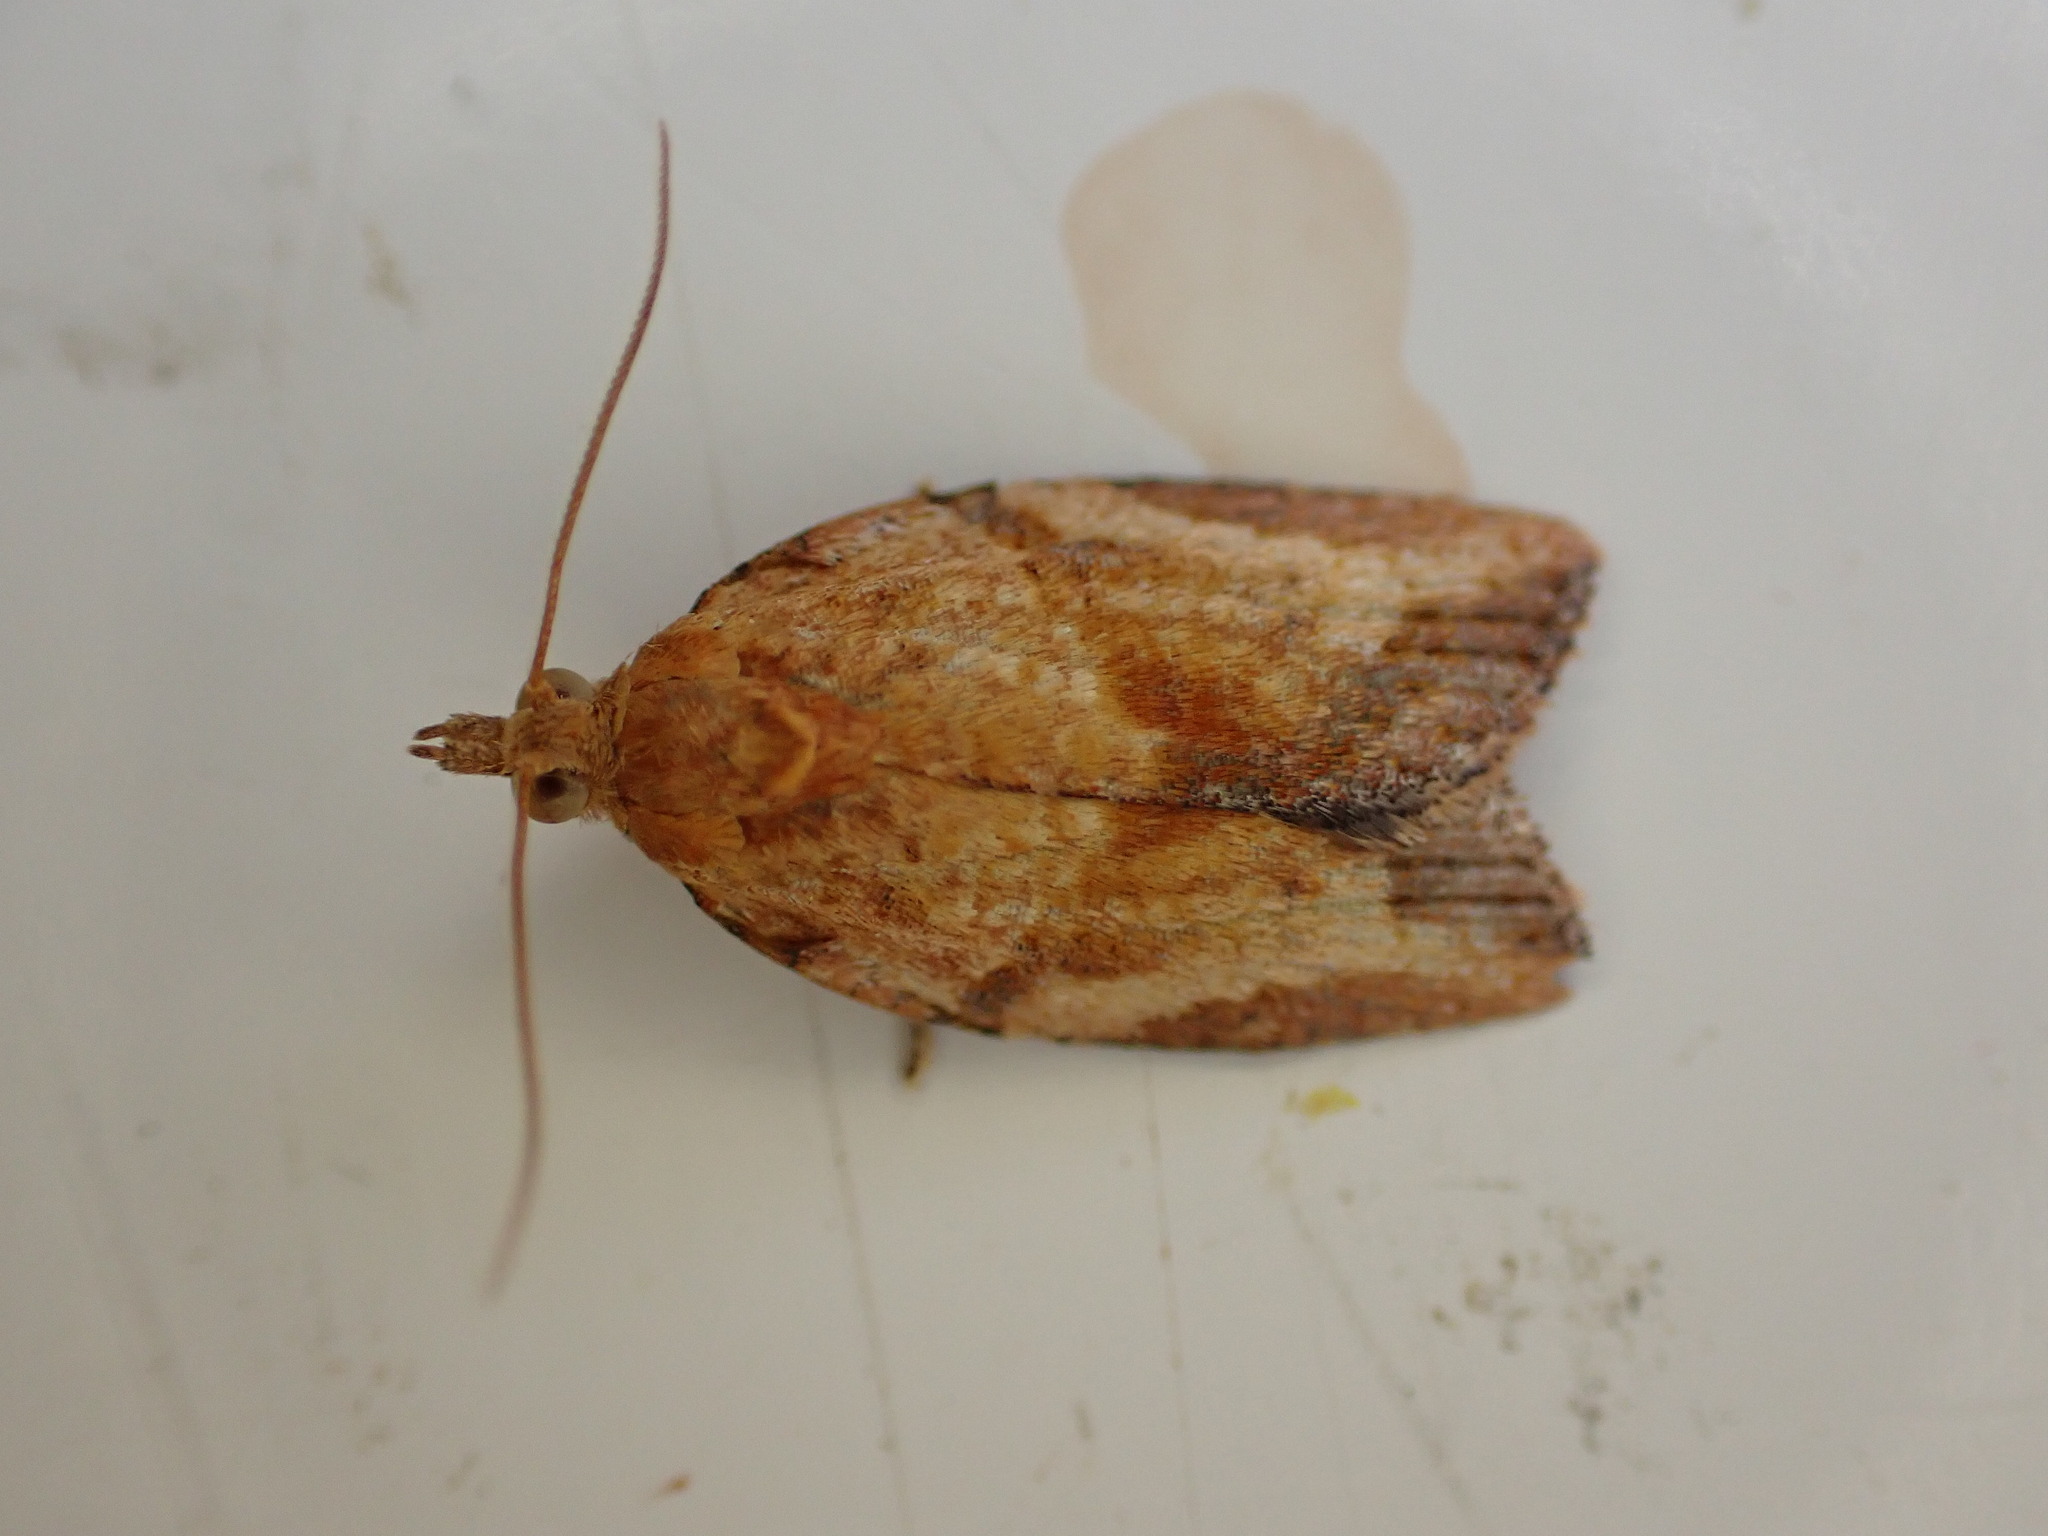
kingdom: Animalia
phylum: Arthropoda
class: Insecta
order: Lepidoptera
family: Tortricidae
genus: Epiphyas
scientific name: Epiphyas postvittana
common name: Light brown apple moth
